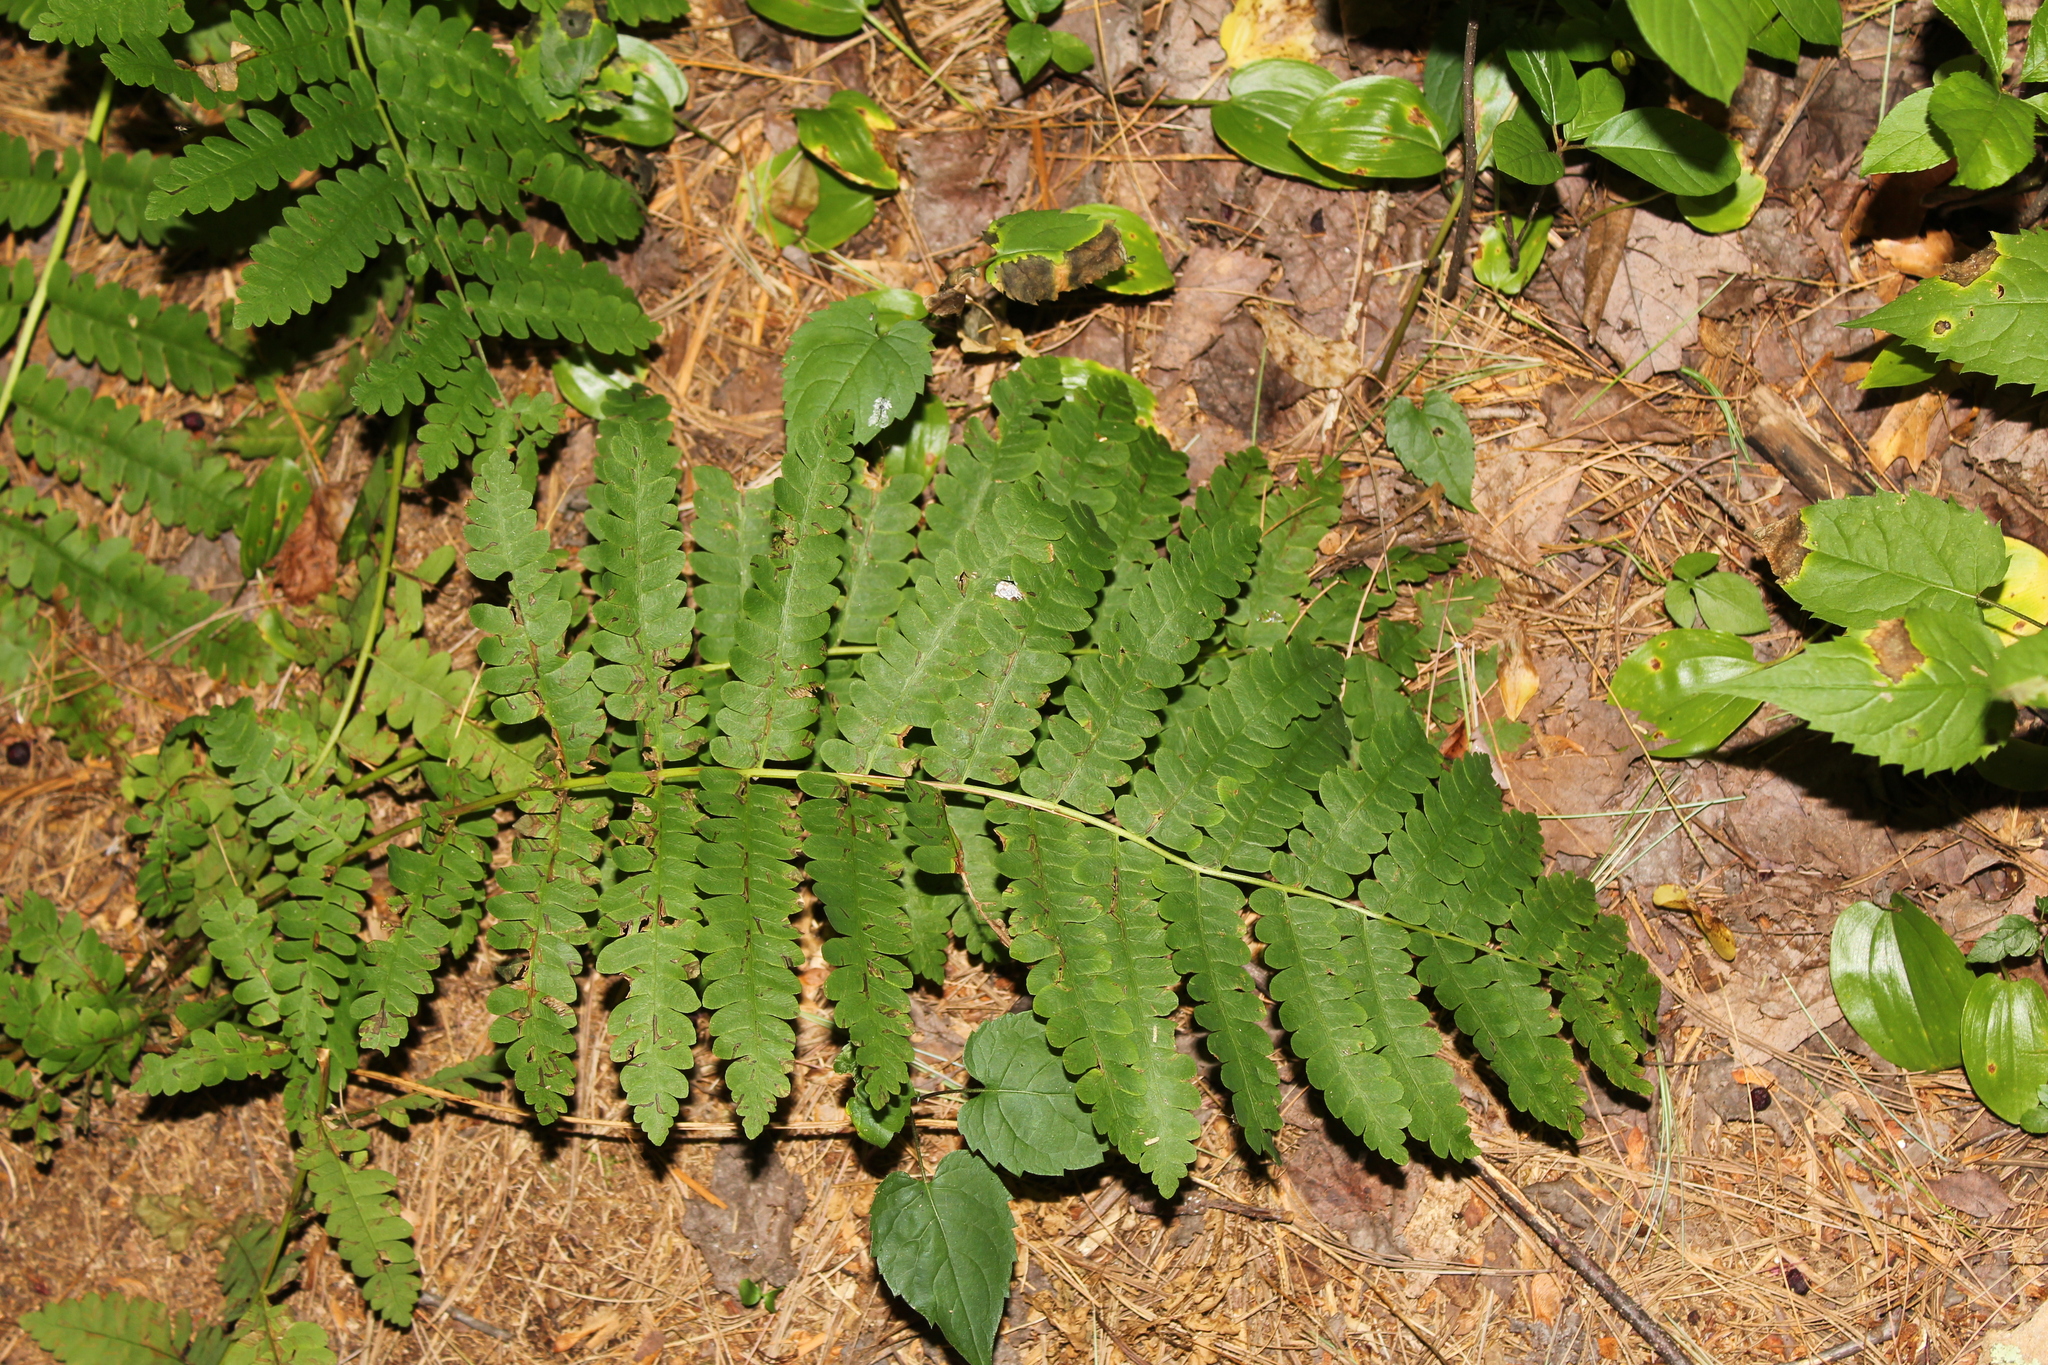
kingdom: Plantae
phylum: Tracheophyta
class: Polypodiopsida
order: Osmundales
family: Osmundaceae
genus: Claytosmunda
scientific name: Claytosmunda claytoniana
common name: Clayton's fern
